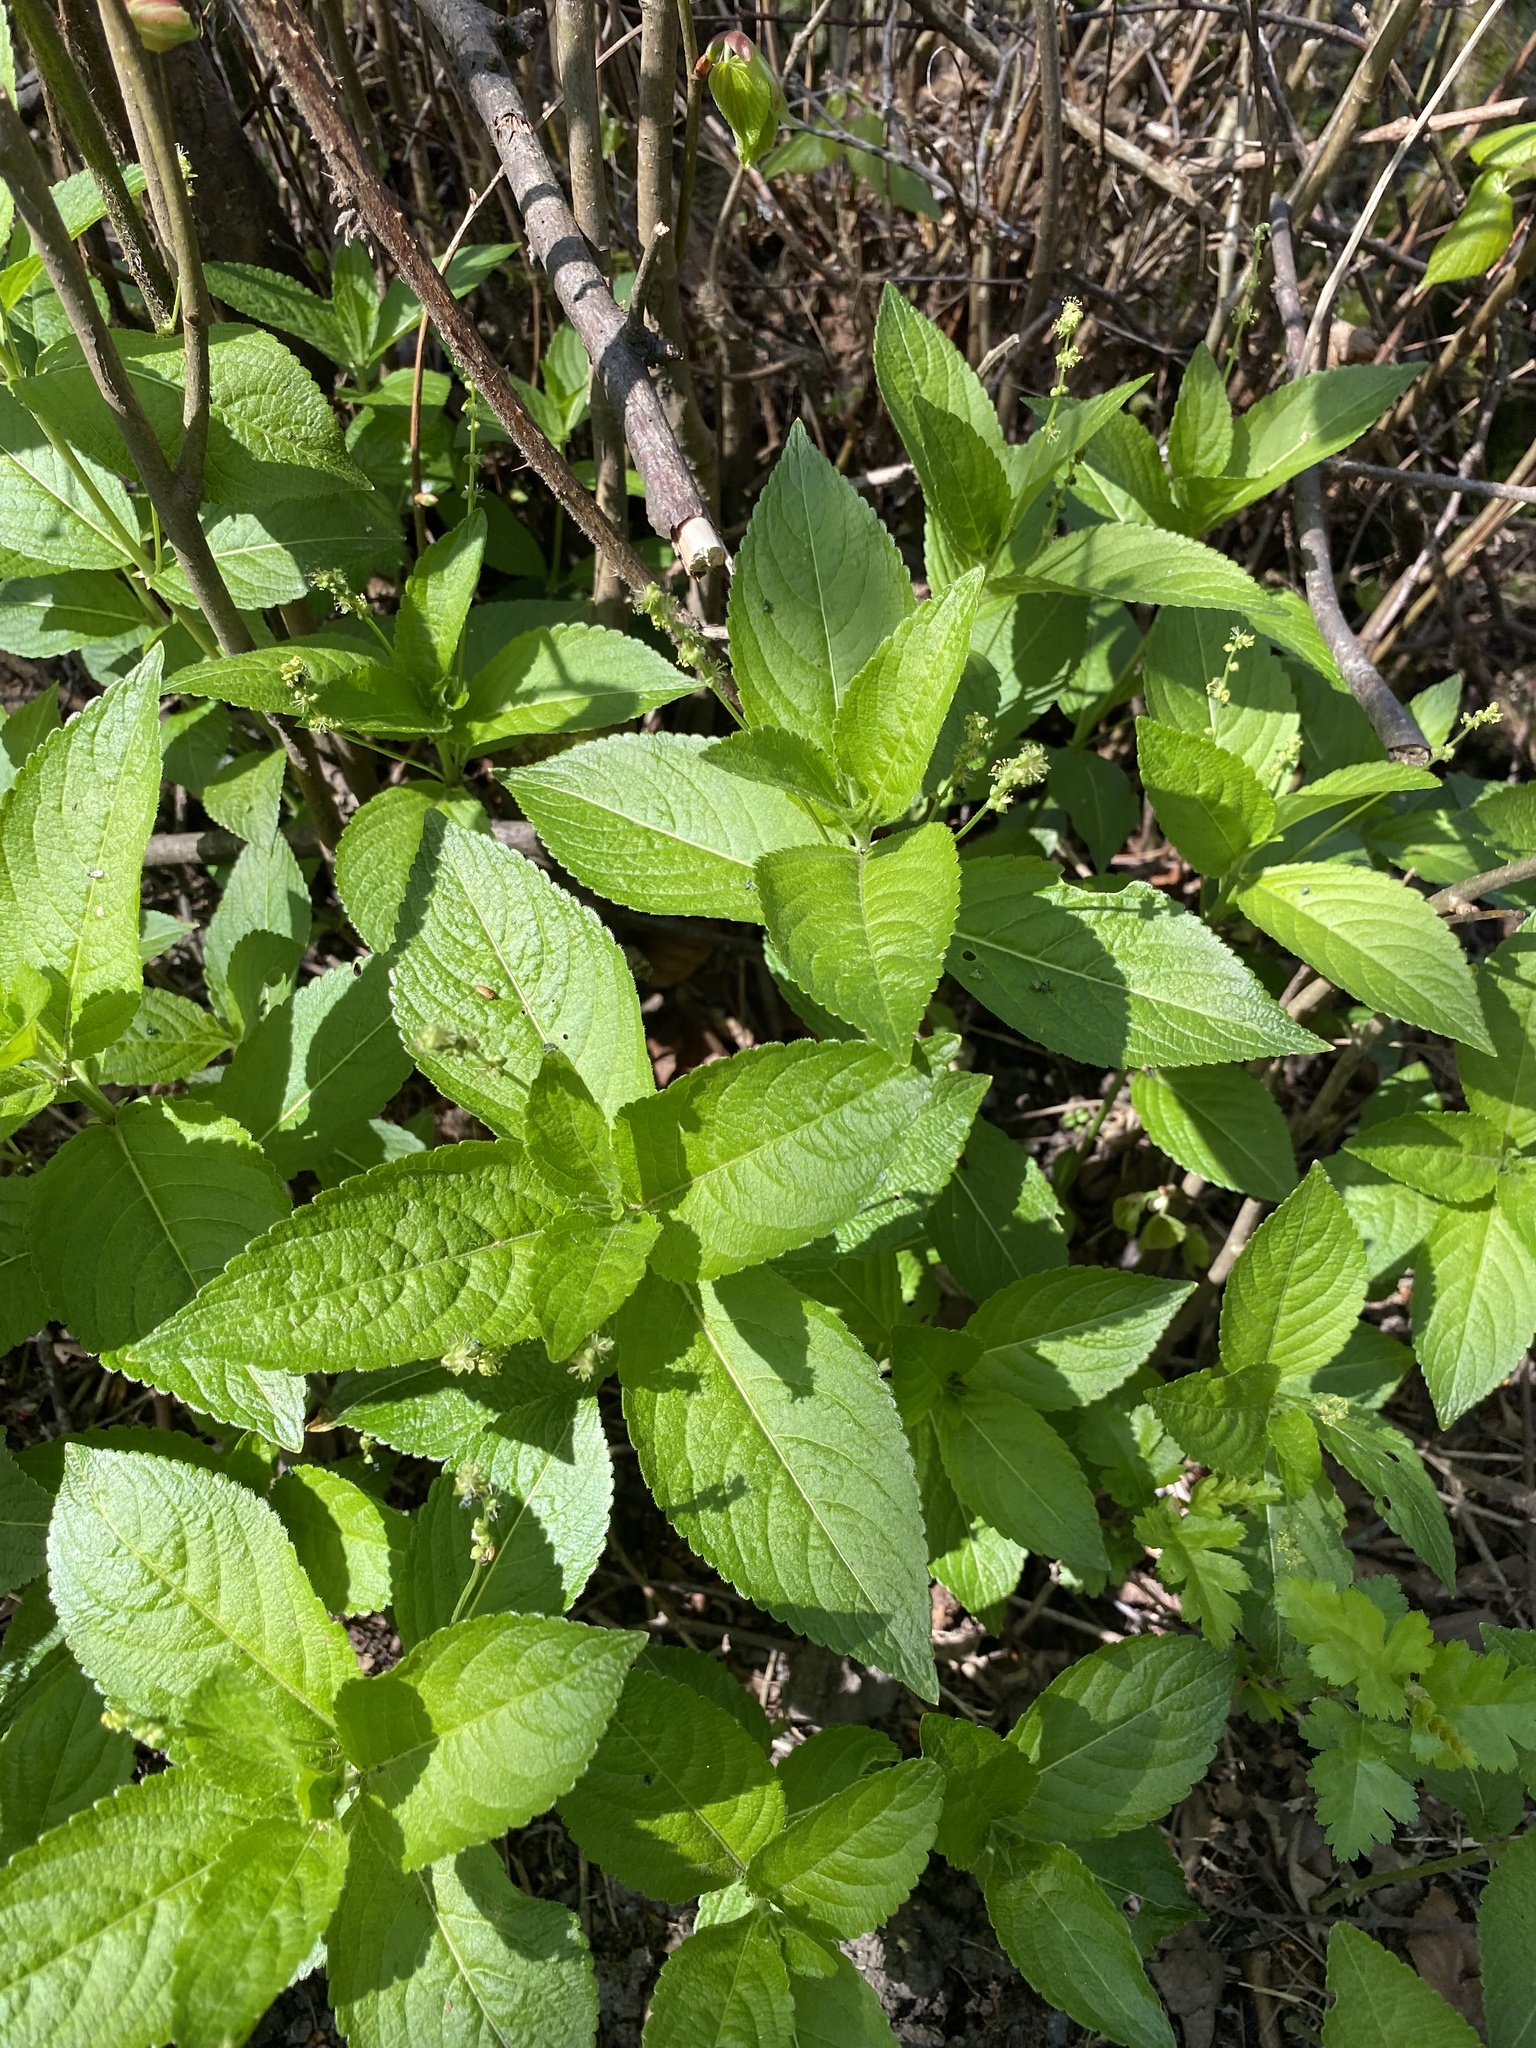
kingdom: Plantae
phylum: Tracheophyta
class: Magnoliopsida
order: Malpighiales
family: Euphorbiaceae
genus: Mercurialis
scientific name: Mercurialis perennis
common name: Dog mercury
